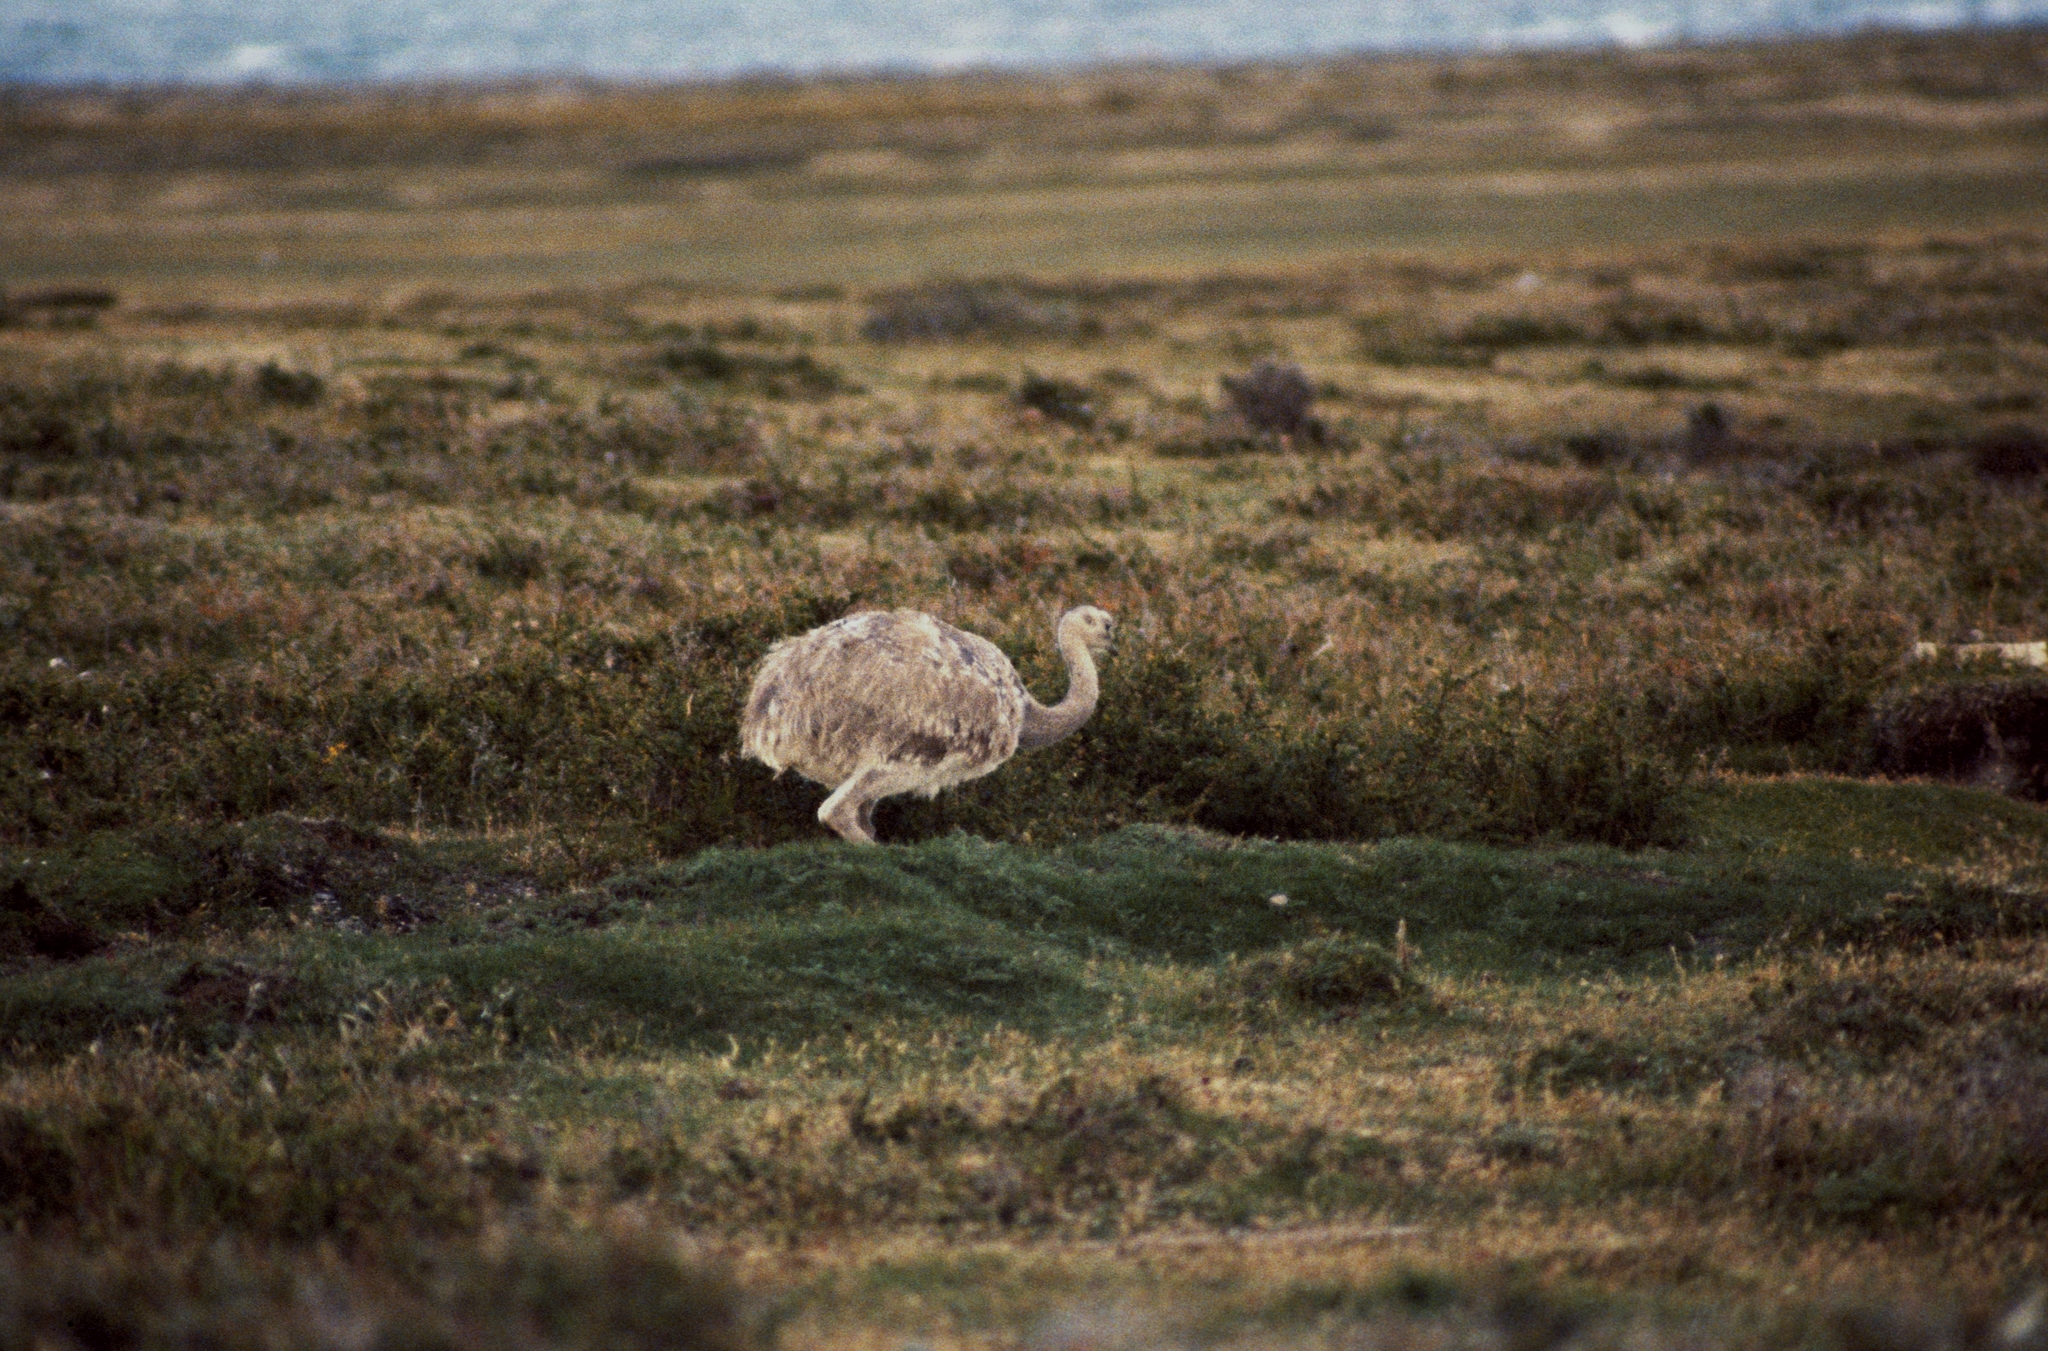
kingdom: Animalia
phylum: Chordata
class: Aves
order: Rheiformes
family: Rheidae
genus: Rhea
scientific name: Rhea pennata
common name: Lesser rhea
